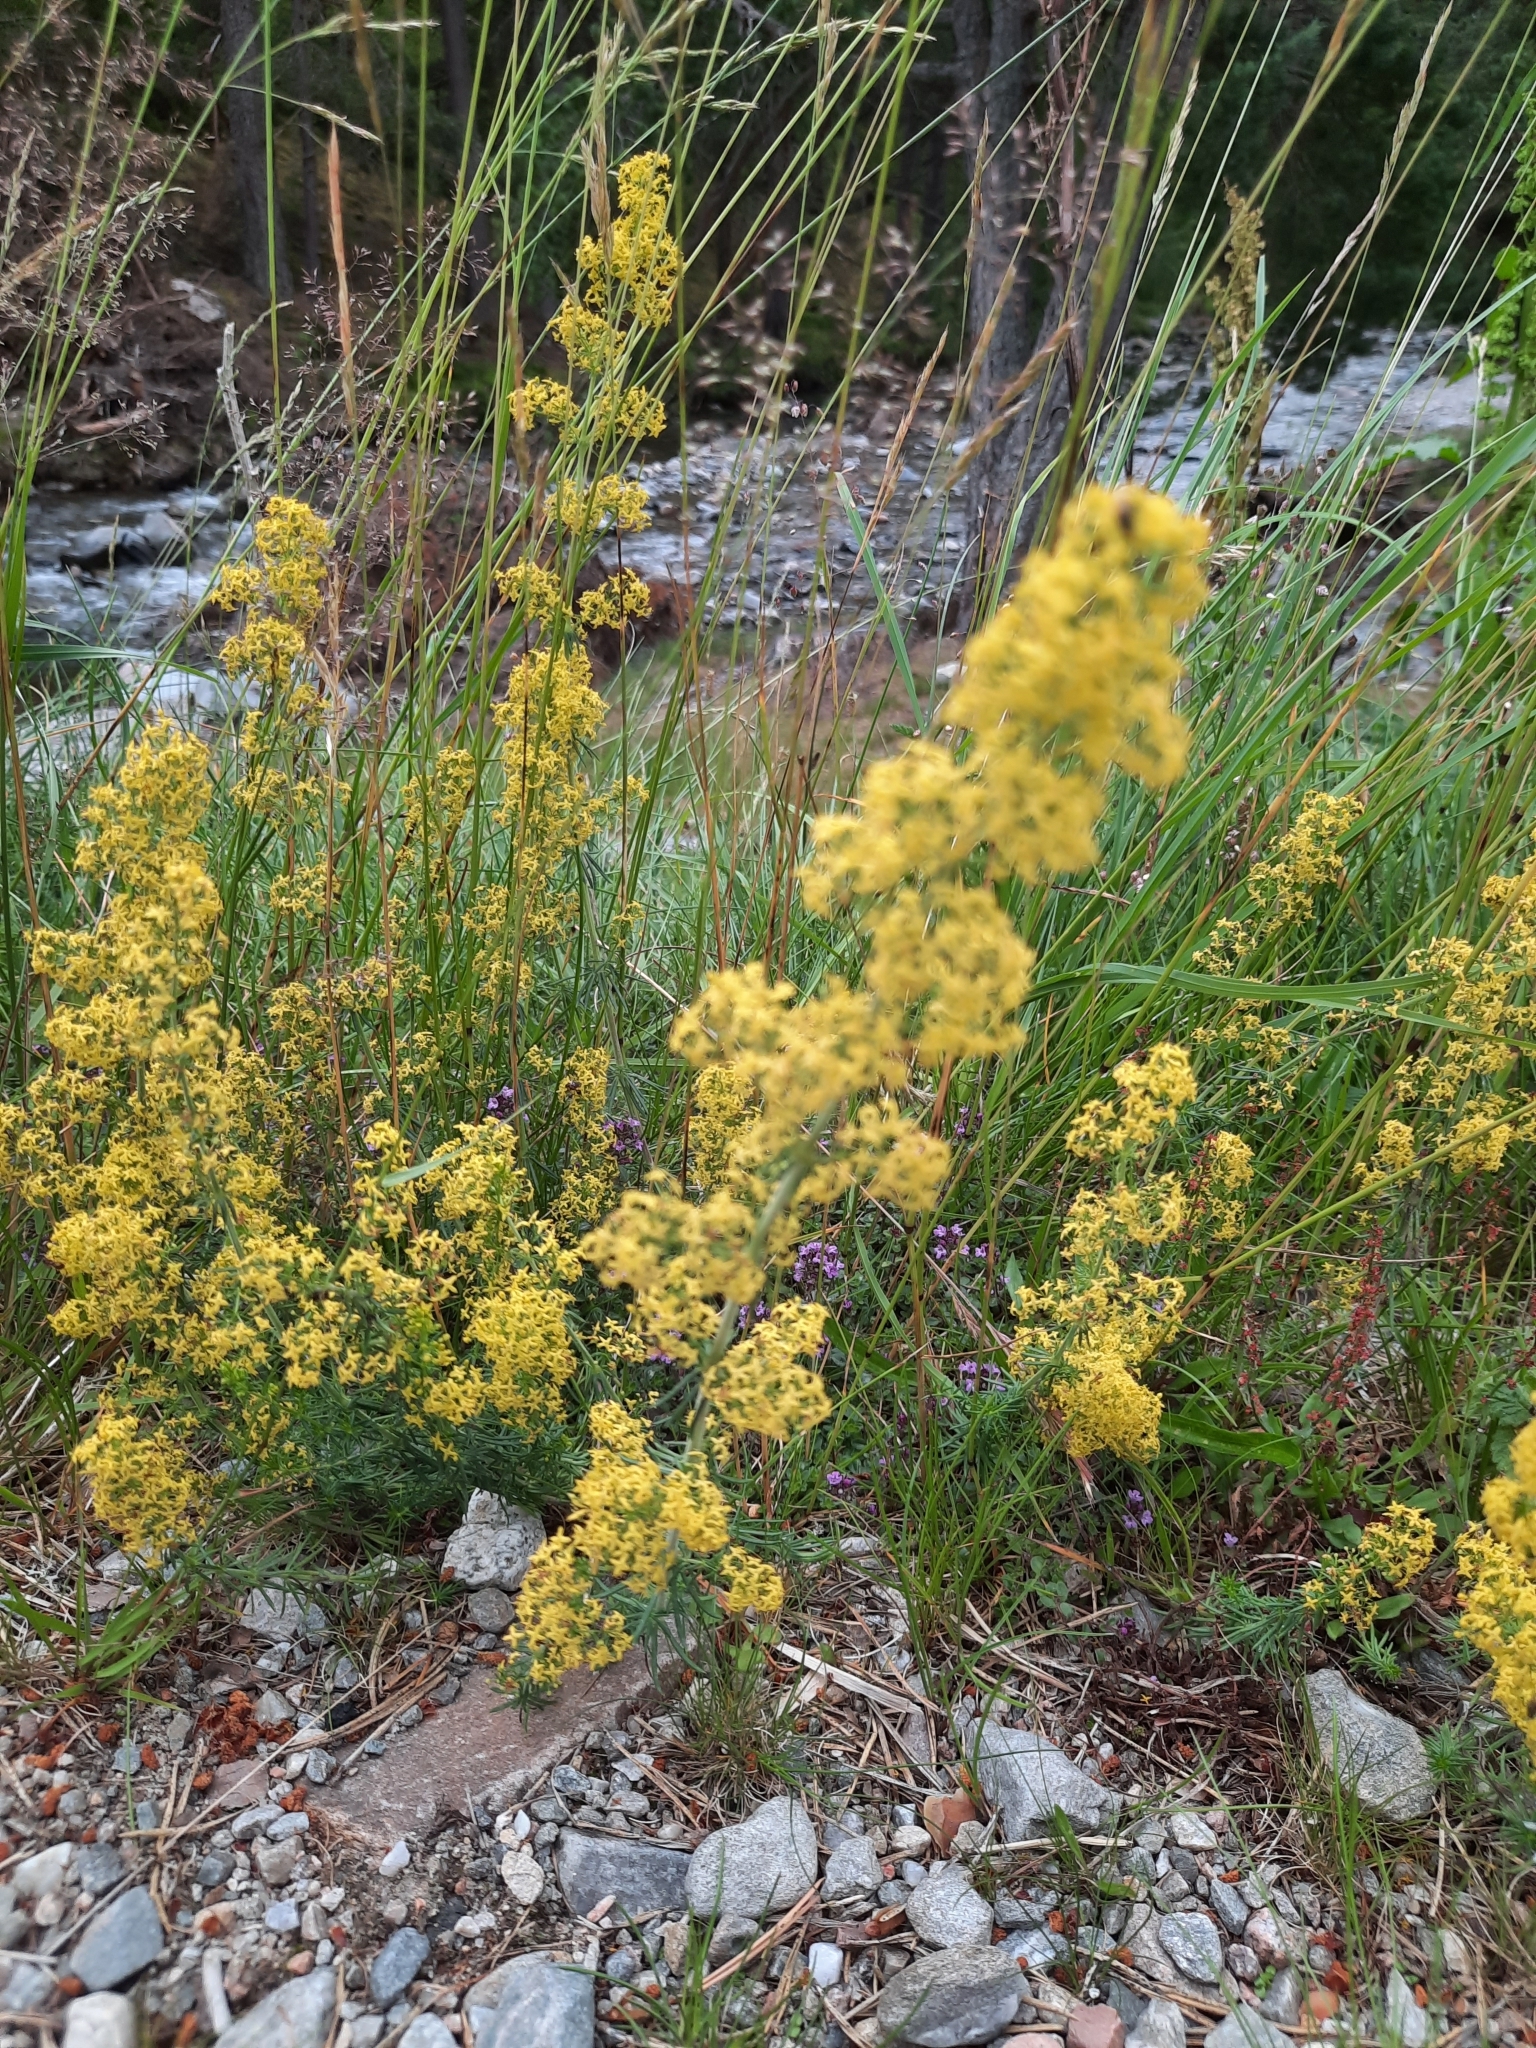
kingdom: Plantae
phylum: Tracheophyta
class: Magnoliopsida
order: Gentianales
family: Rubiaceae
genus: Galium
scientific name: Galium verum
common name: Lady's bedstraw
